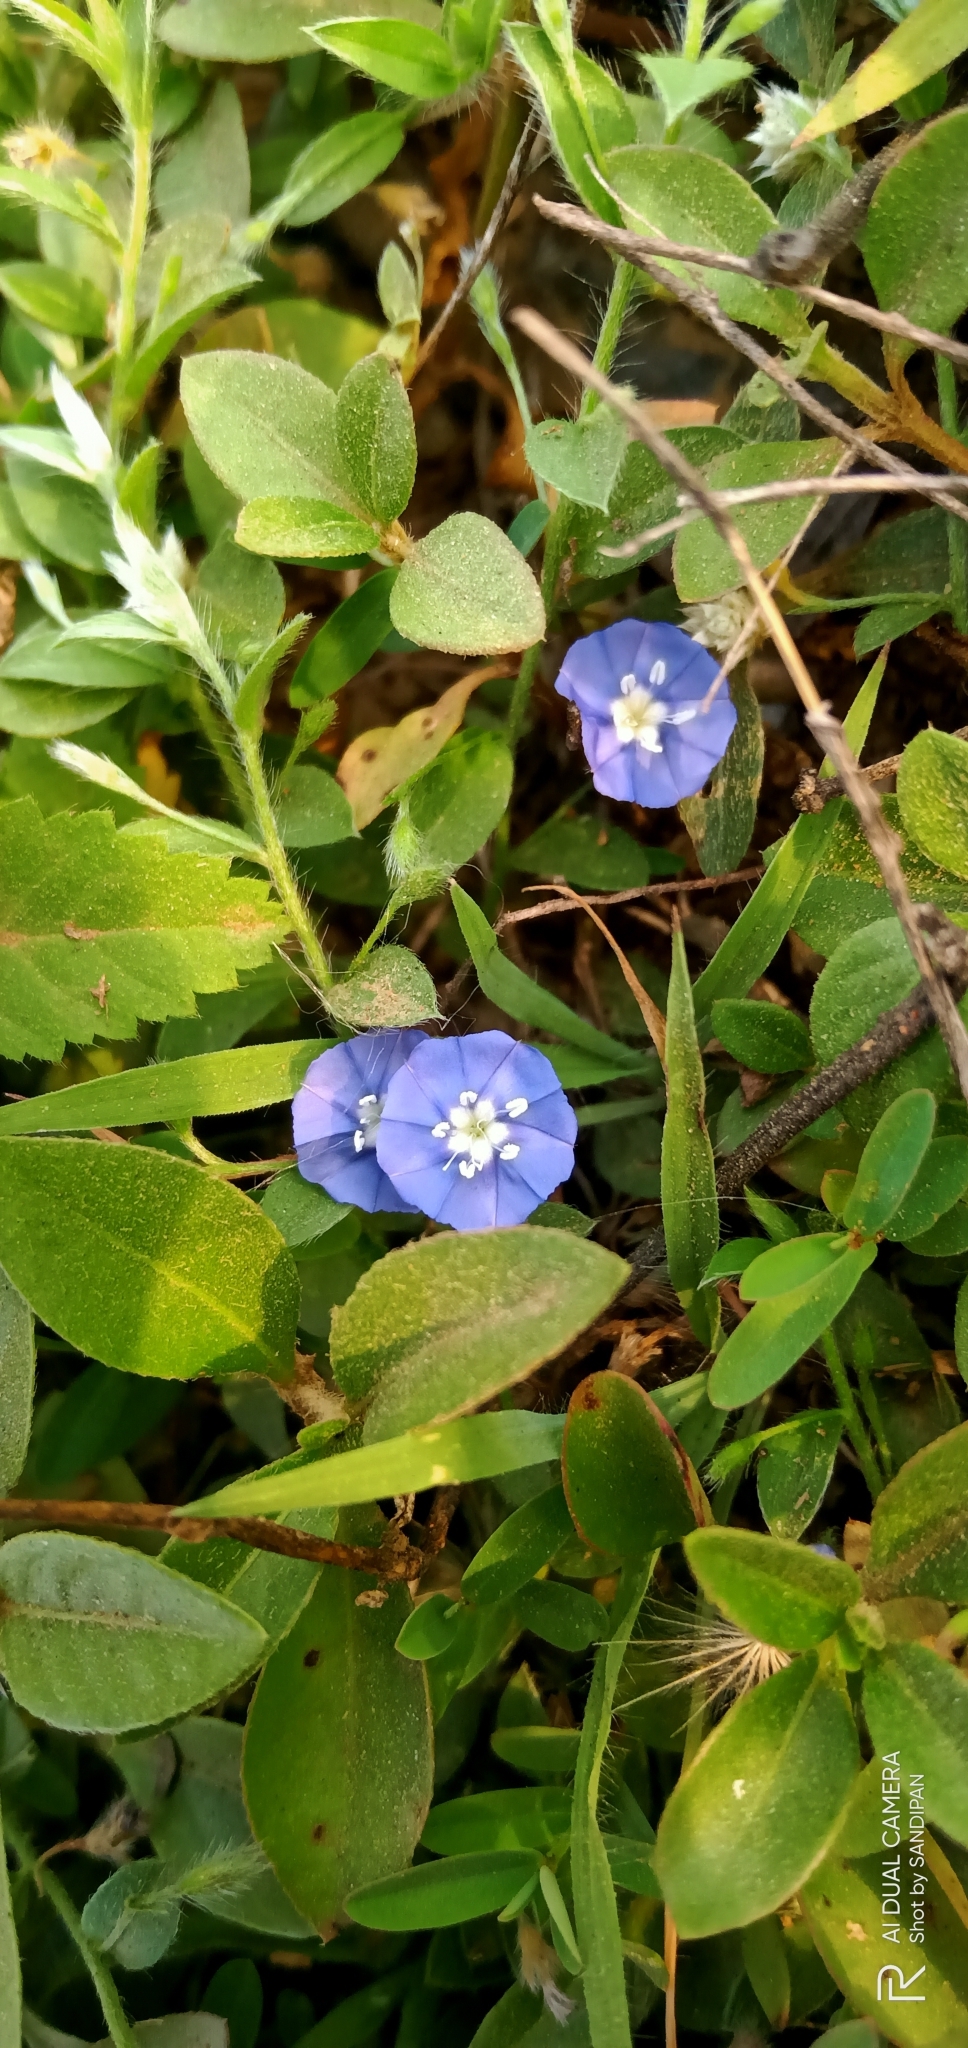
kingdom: Plantae
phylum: Tracheophyta
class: Magnoliopsida
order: Solanales
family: Convolvulaceae
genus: Evolvulus
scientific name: Evolvulus alsinoides
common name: Slender dwarf morning-glory
